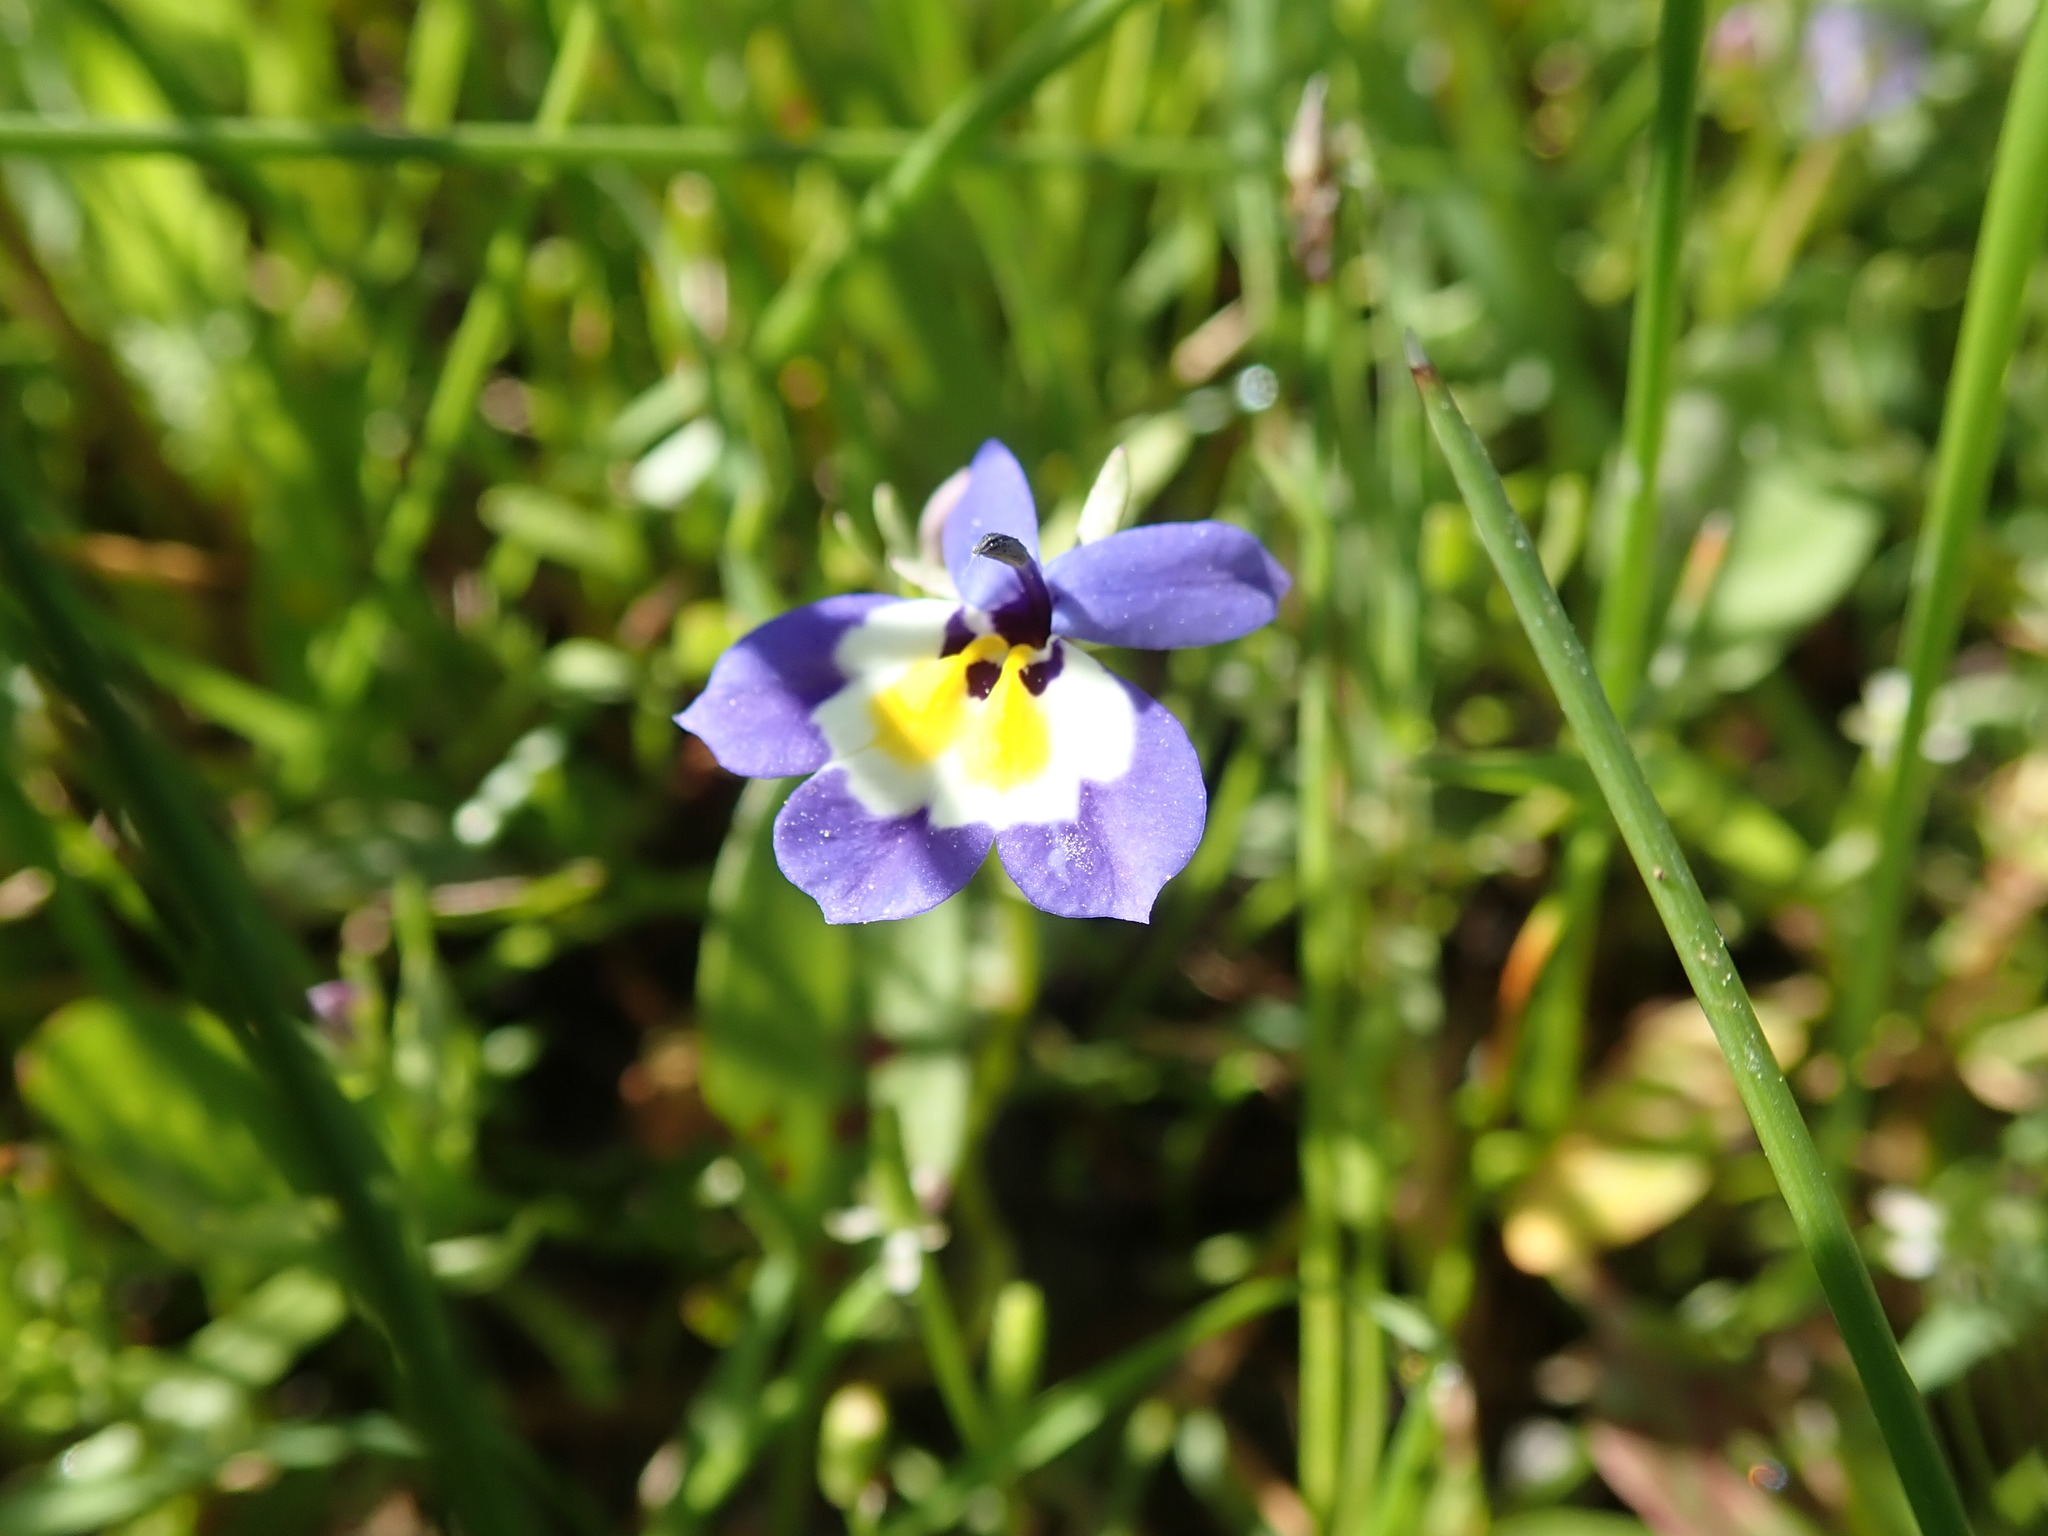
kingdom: Plantae
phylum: Tracheophyta
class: Magnoliopsida
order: Asterales
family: Campanulaceae
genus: Downingia
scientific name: Downingia pulchella
